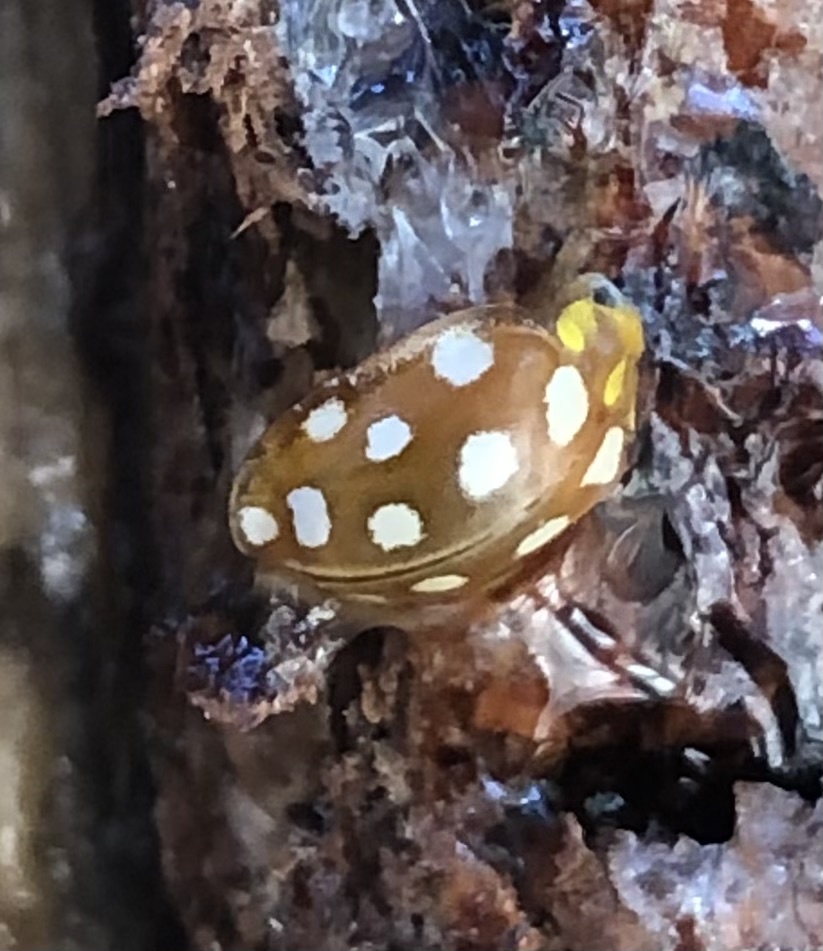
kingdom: Animalia
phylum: Arthropoda
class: Insecta
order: Coleoptera
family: Coccinellidae
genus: Halyzia
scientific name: Halyzia sedecimguttata
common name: Orange ladybird
